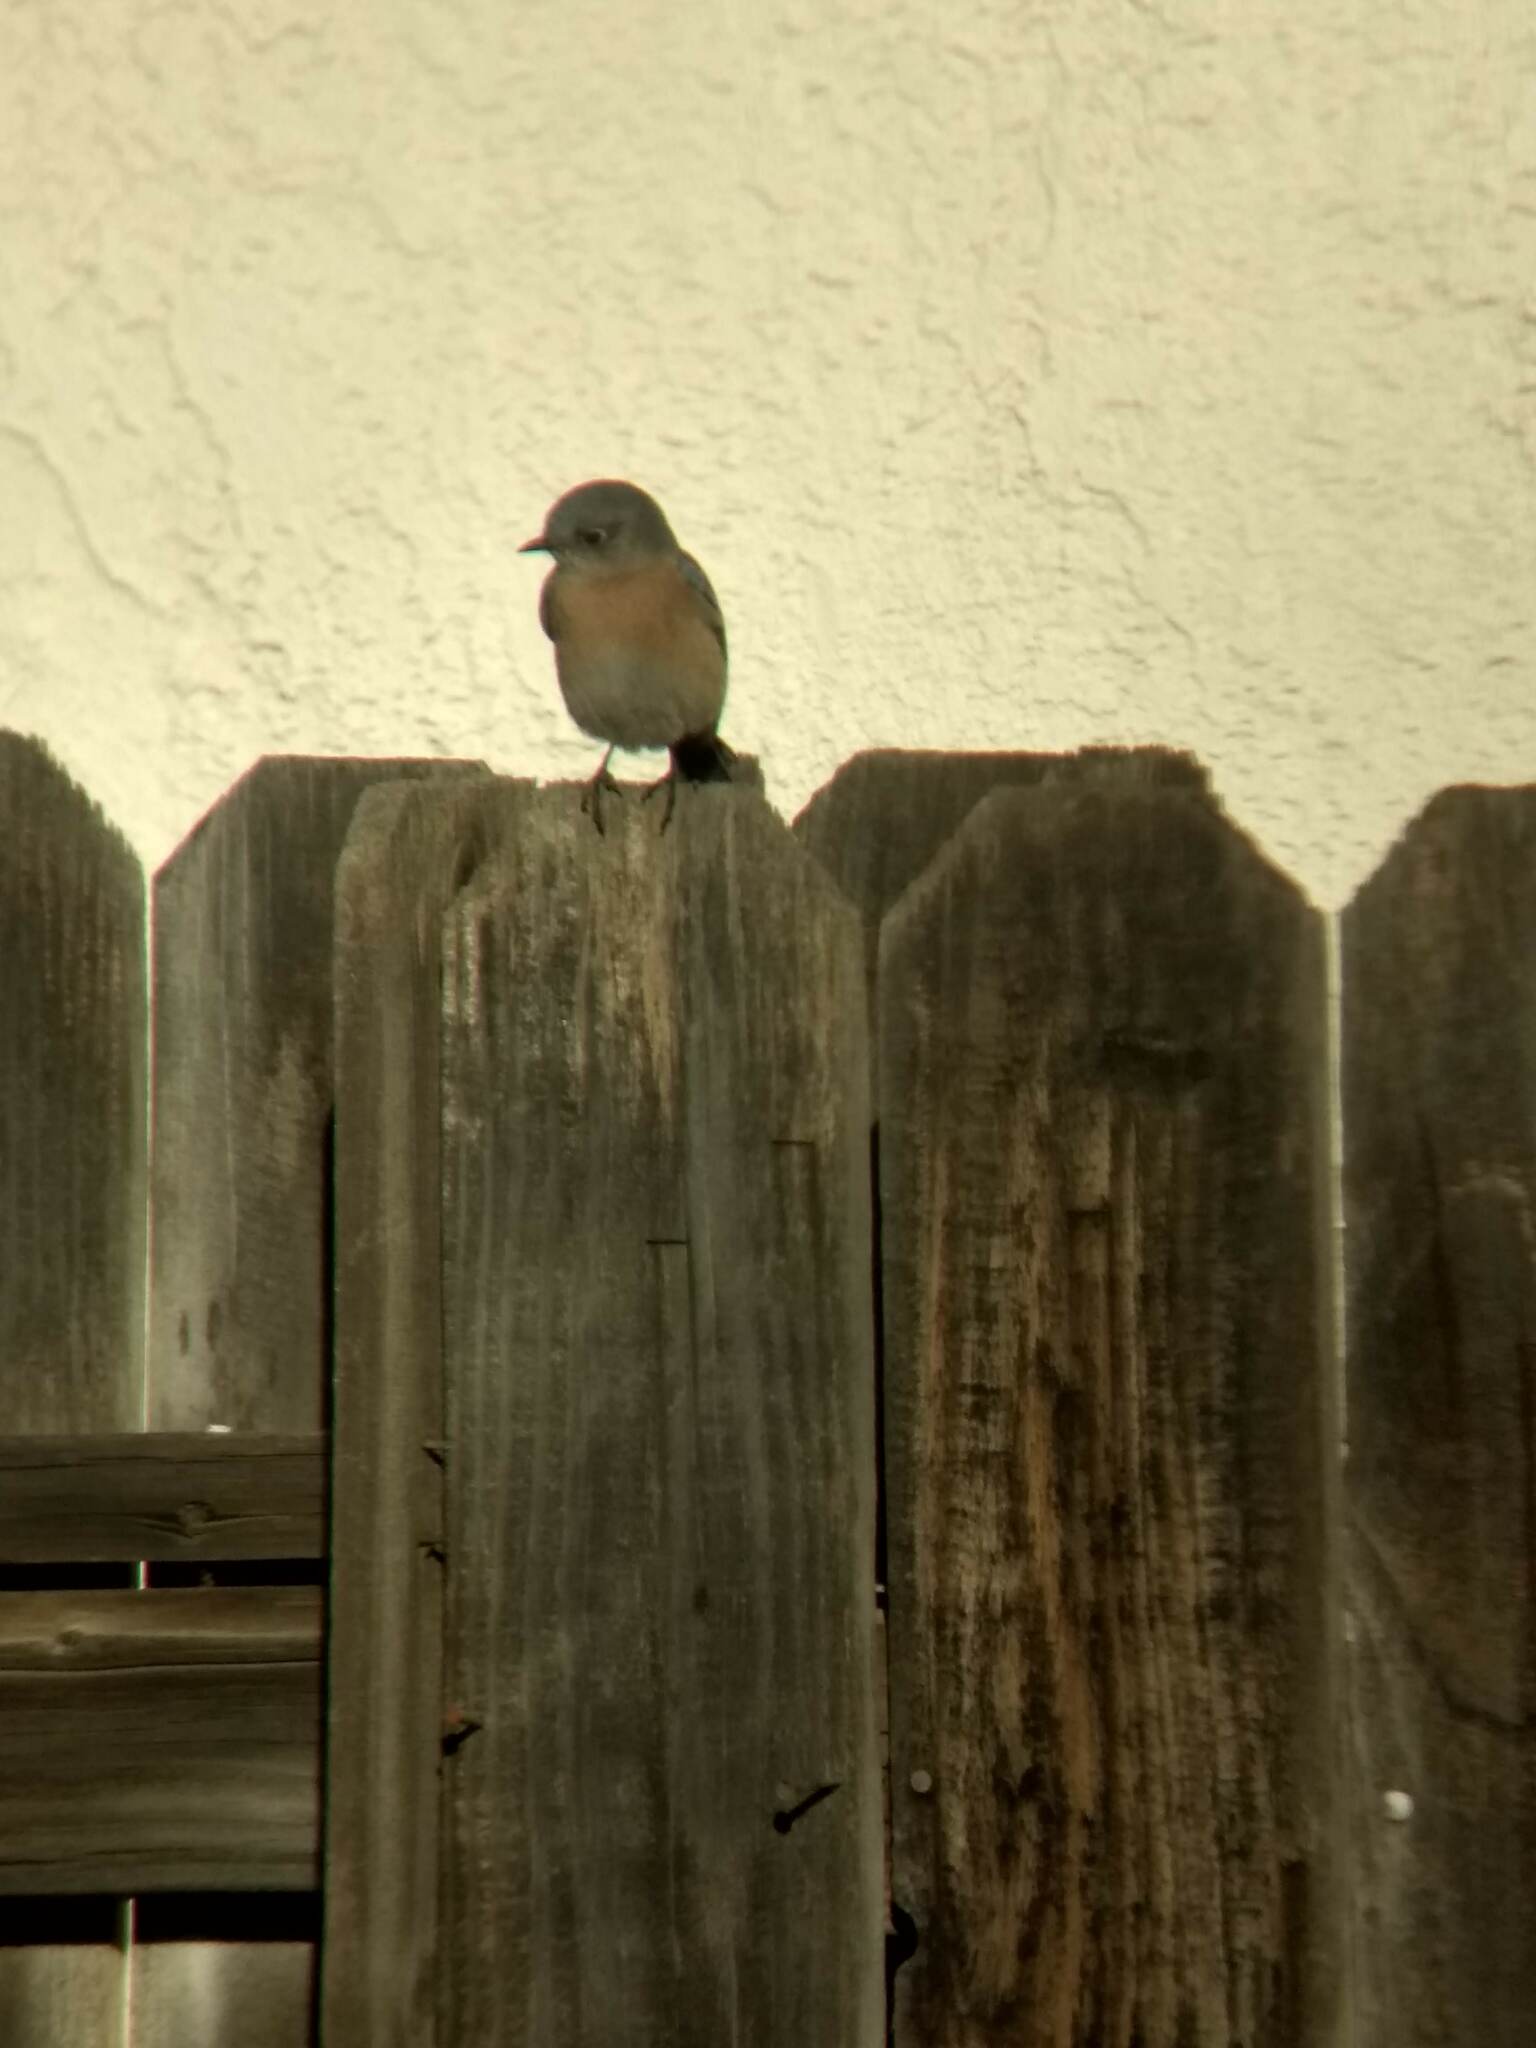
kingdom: Animalia
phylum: Chordata
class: Aves
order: Passeriformes
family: Turdidae
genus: Sialia
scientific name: Sialia mexicana
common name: Western bluebird
